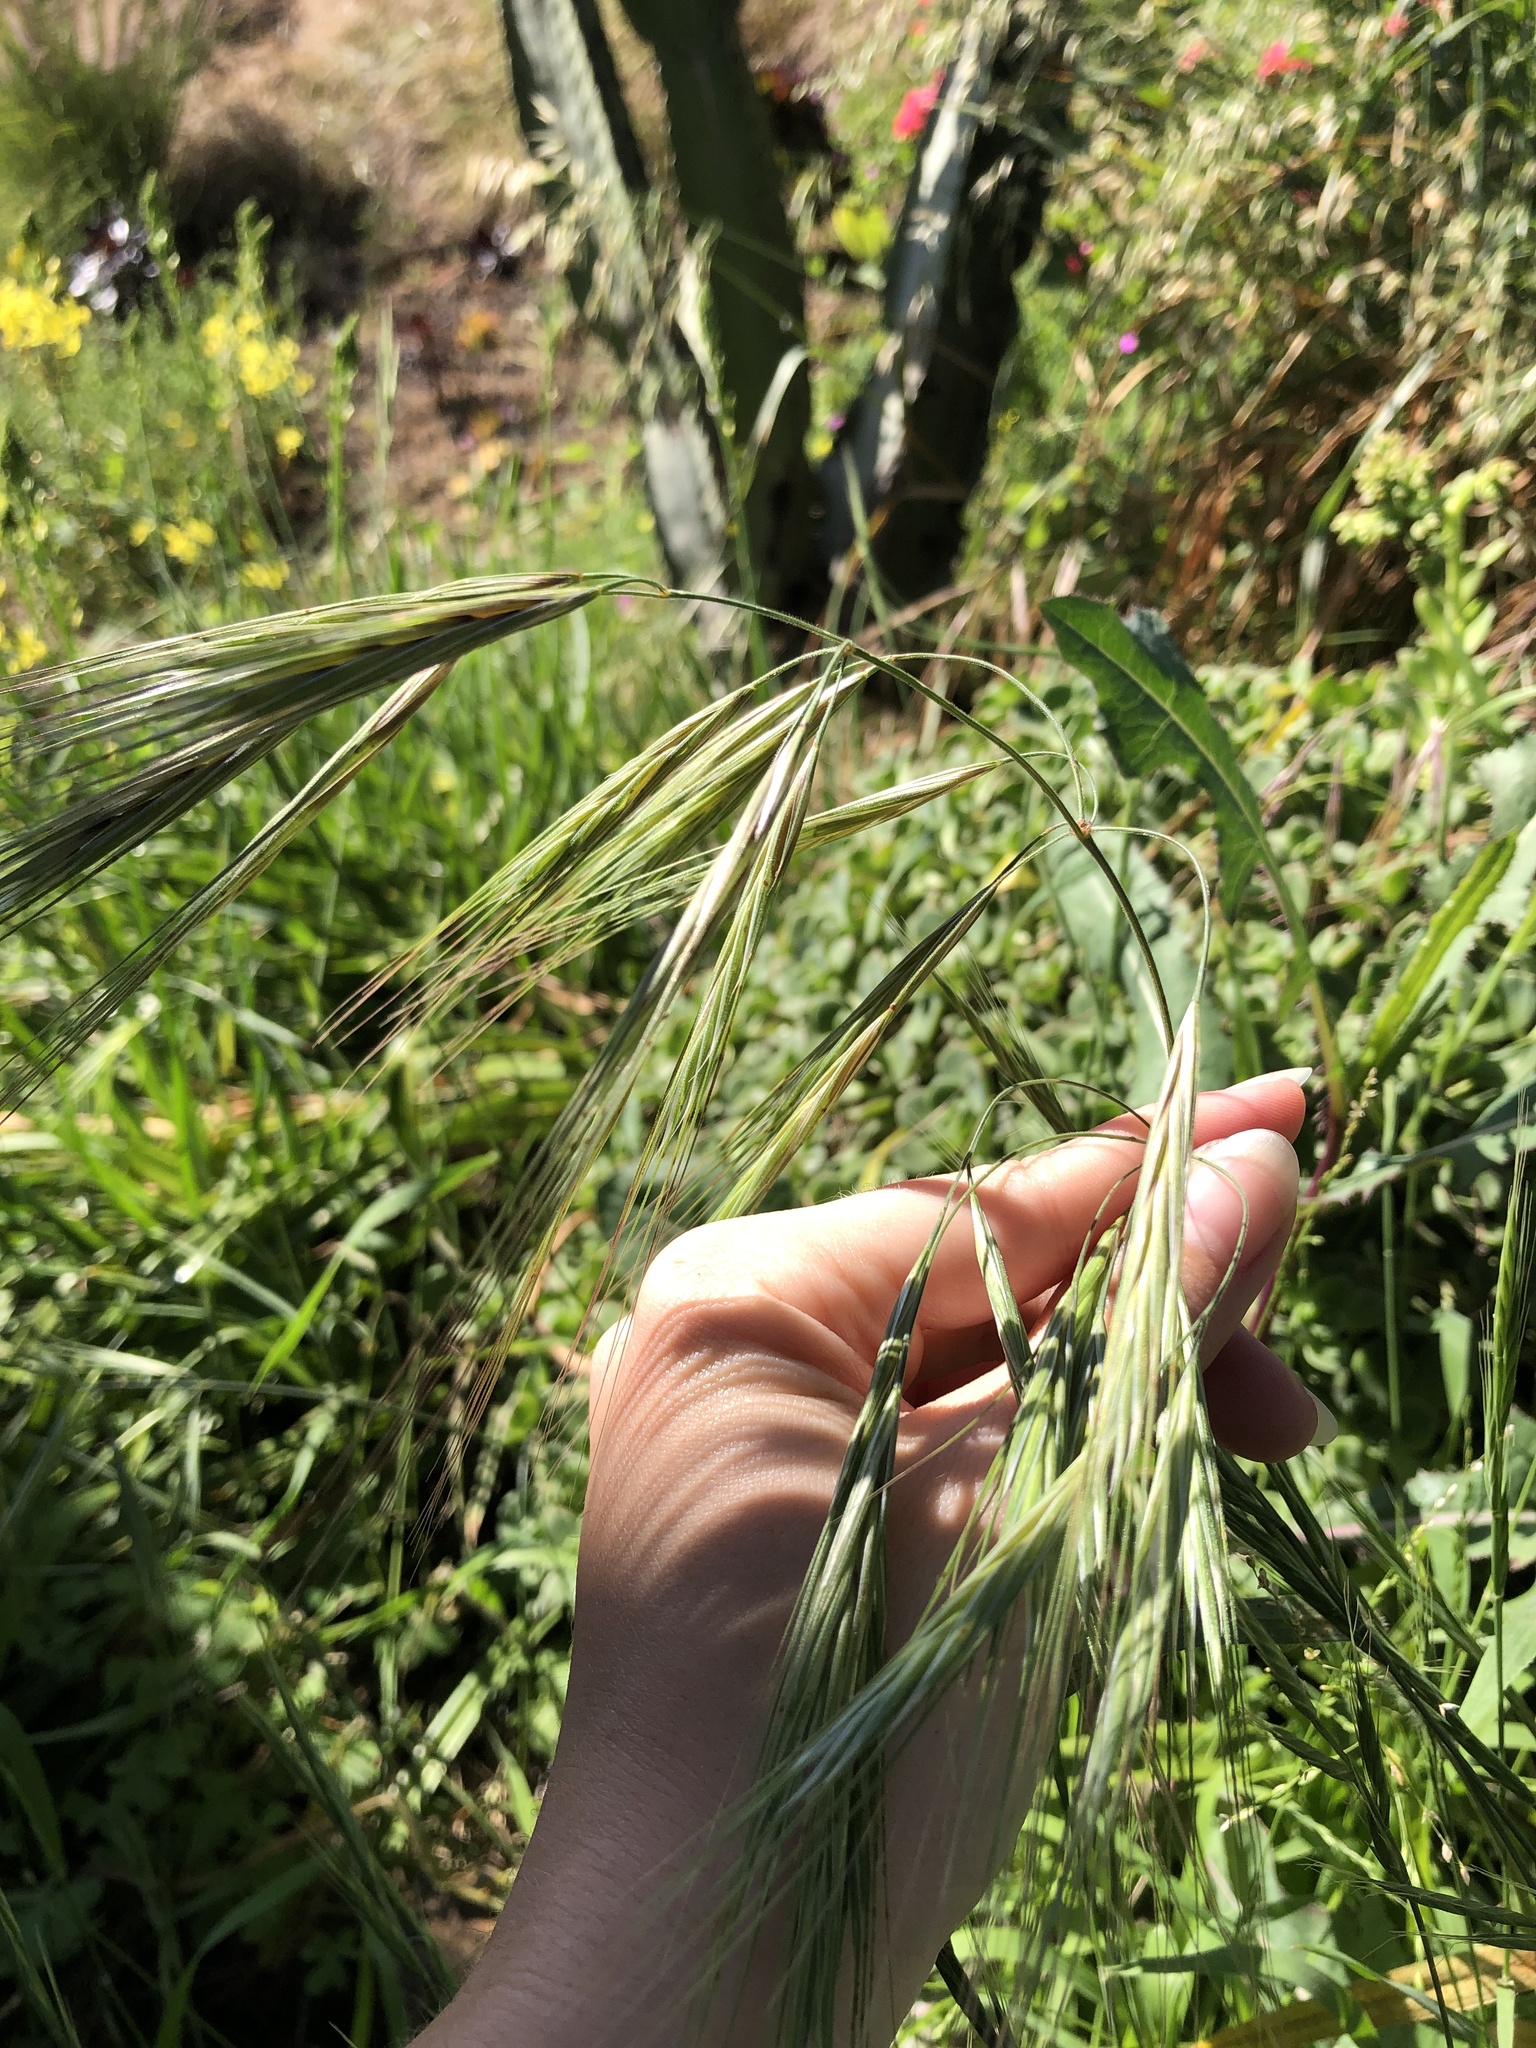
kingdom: Plantae
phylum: Tracheophyta
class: Liliopsida
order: Poales
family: Poaceae
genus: Bromus
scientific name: Bromus diandrus
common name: Ripgut brome
